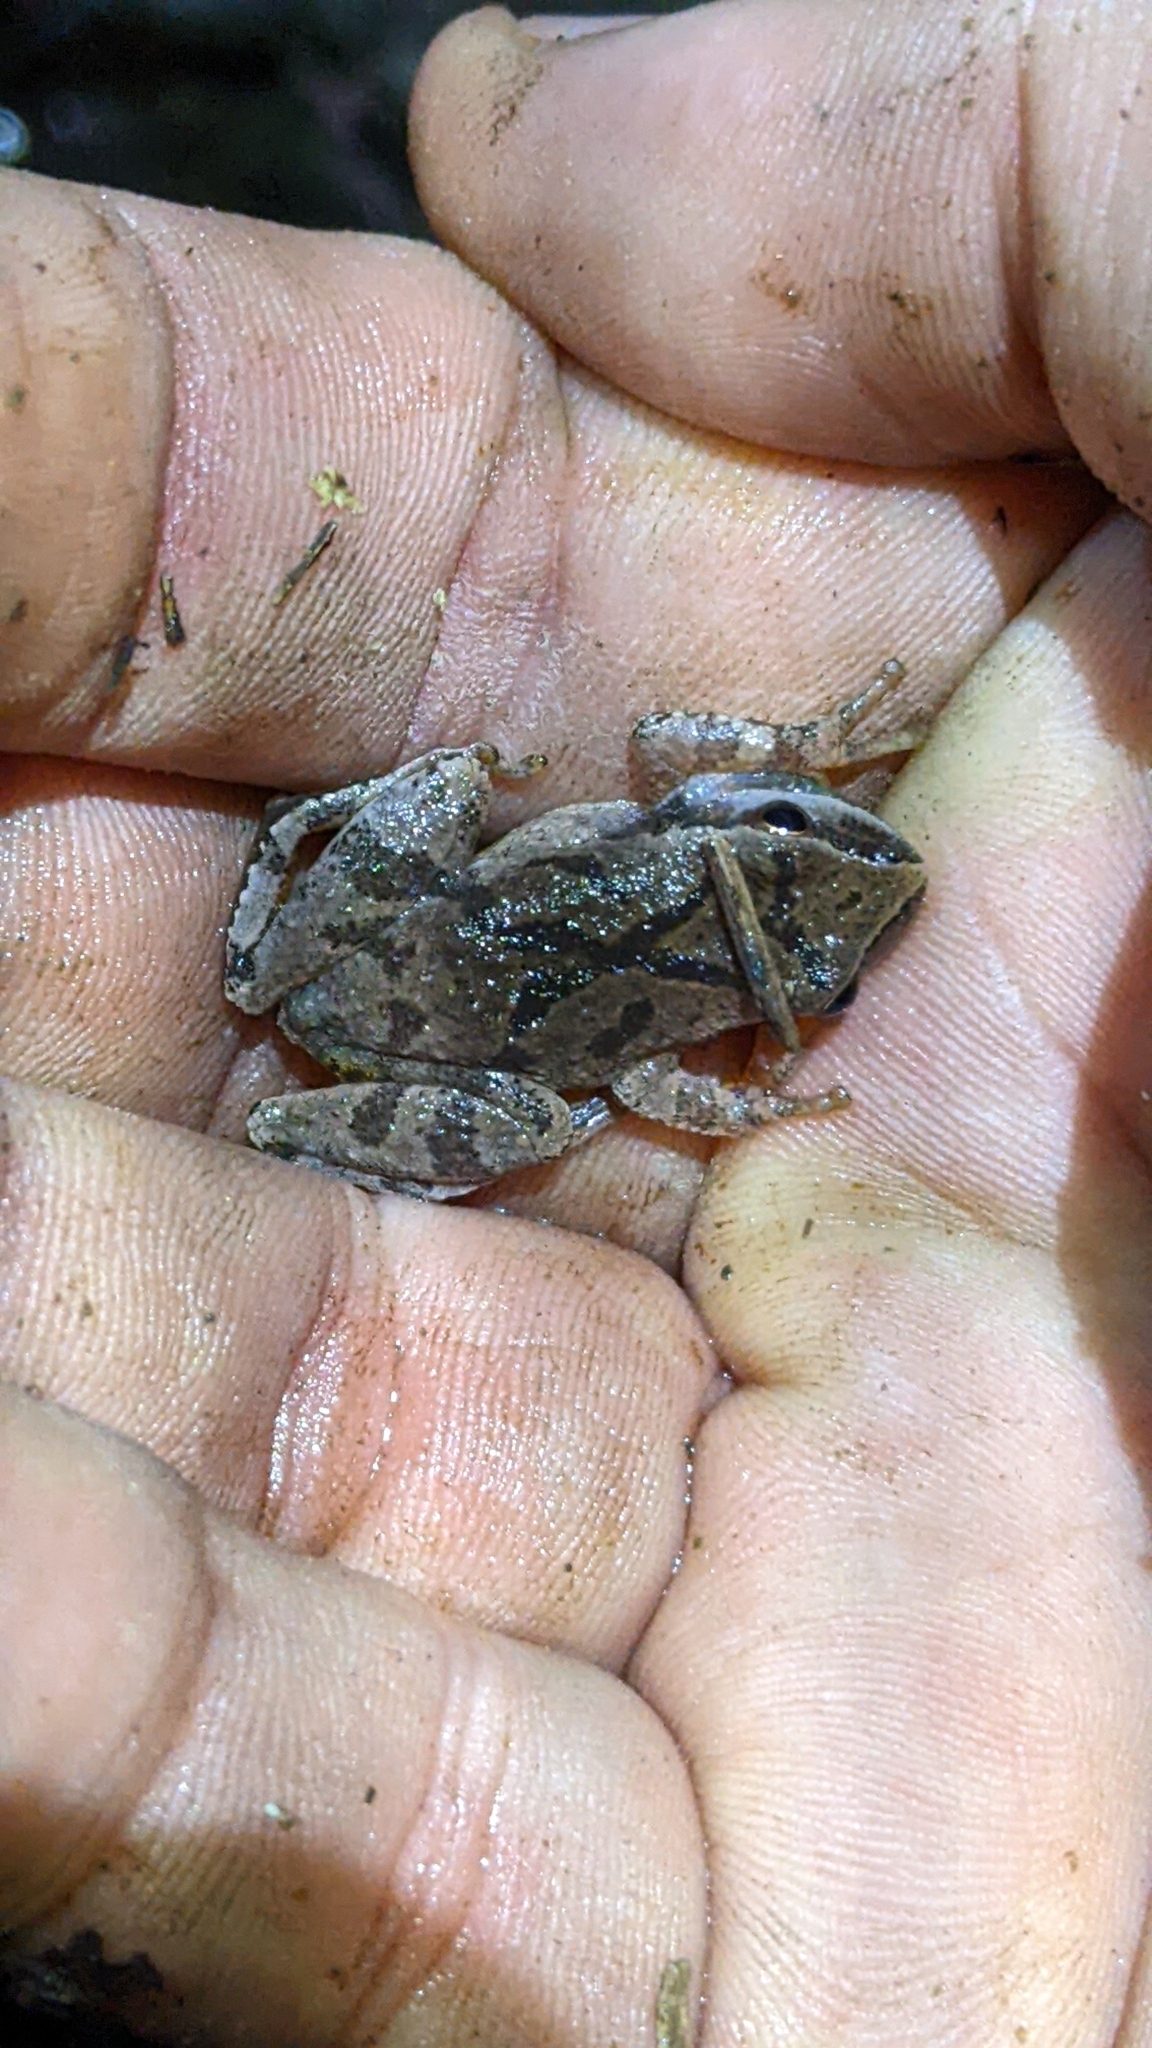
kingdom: Animalia
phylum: Chordata
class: Amphibia
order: Anura
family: Hylidae
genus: Pseudacris
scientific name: Pseudacris crucifer
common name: Spring peeper
